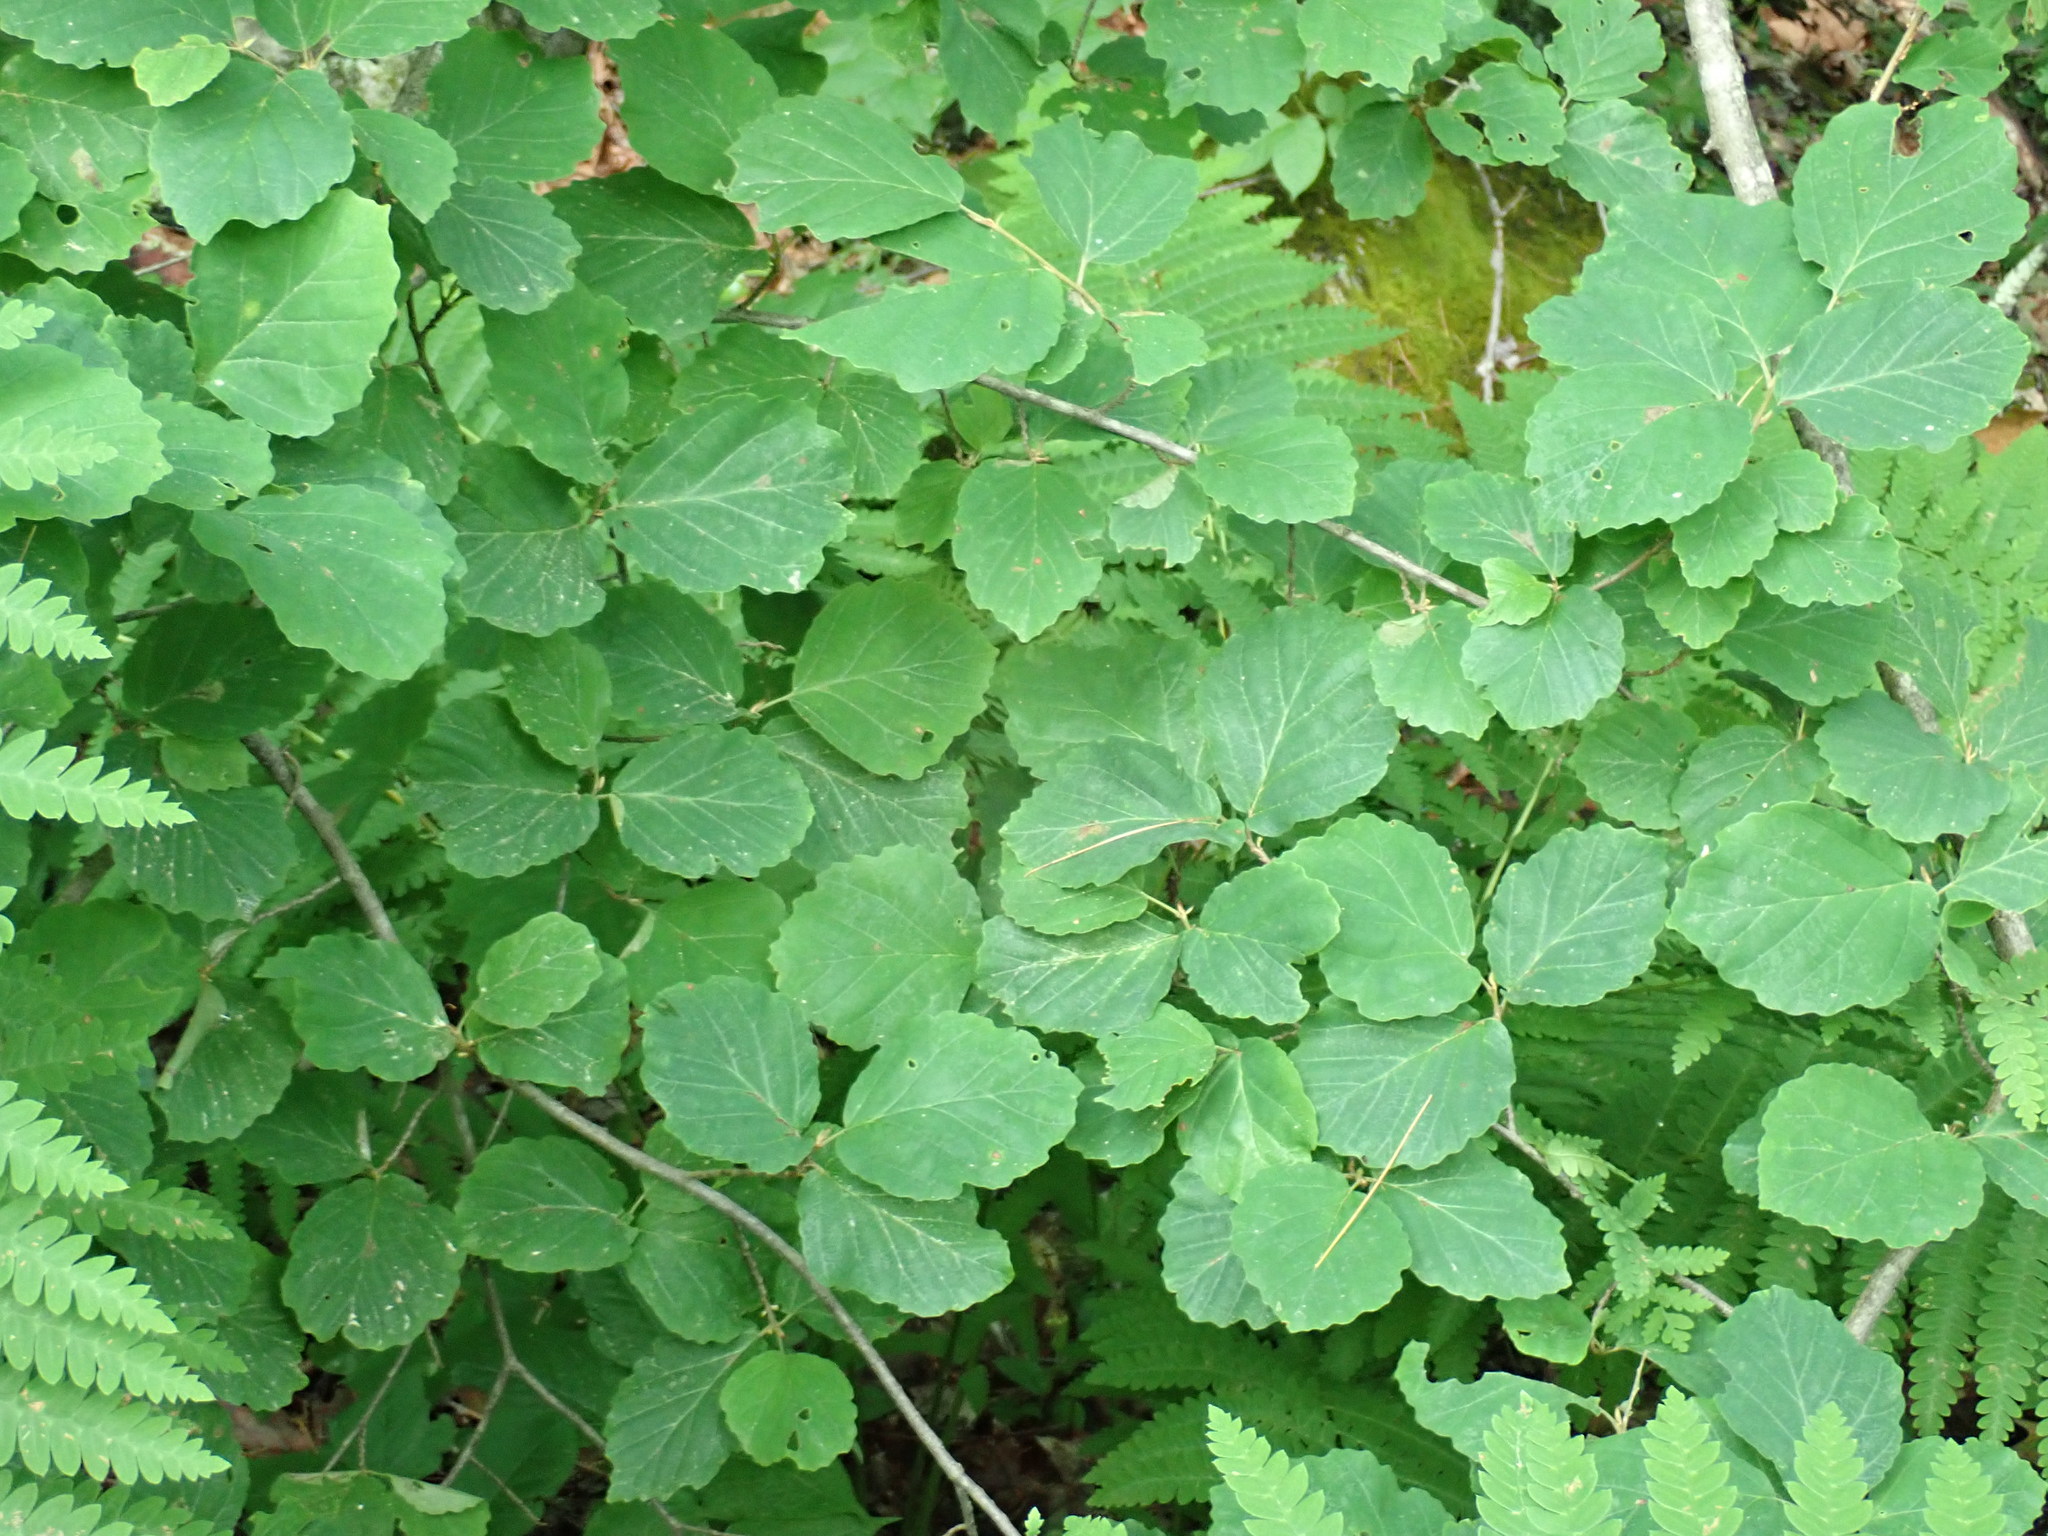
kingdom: Plantae
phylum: Tracheophyta
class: Magnoliopsida
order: Saxifragales
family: Hamamelidaceae
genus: Hamamelis
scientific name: Hamamelis virginiana
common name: Witch-hazel
